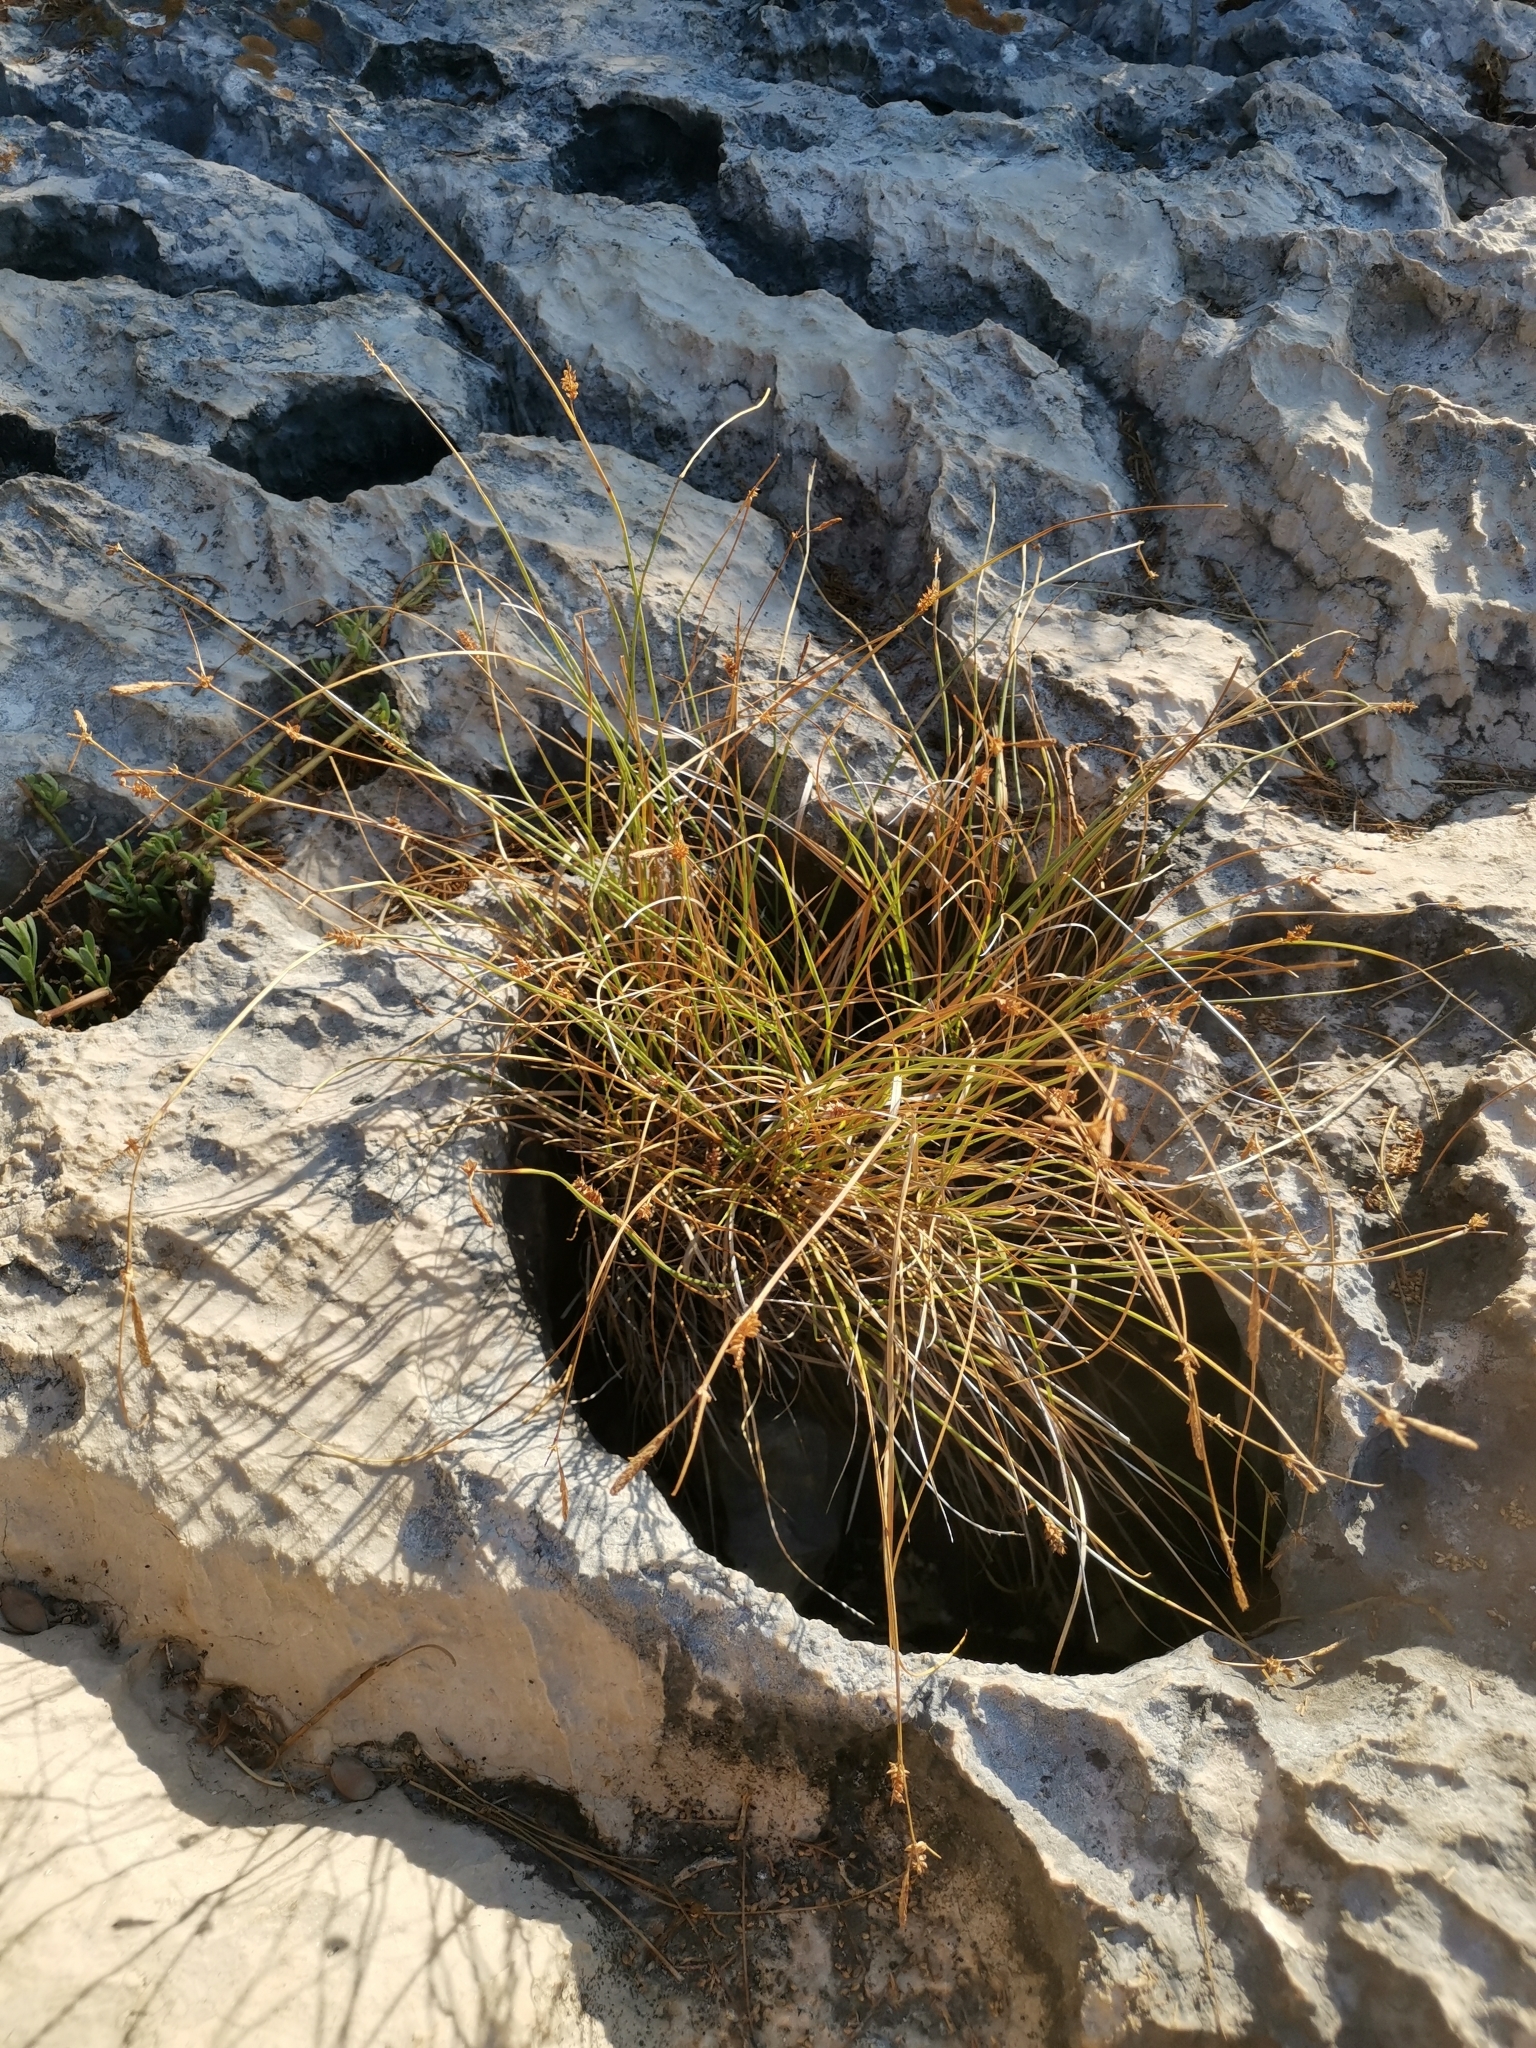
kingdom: Plantae
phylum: Tracheophyta
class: Liliopsida
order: Poales
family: Cyperaceae
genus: Carex
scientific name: Carex extensa
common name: Long-bracted sedge
